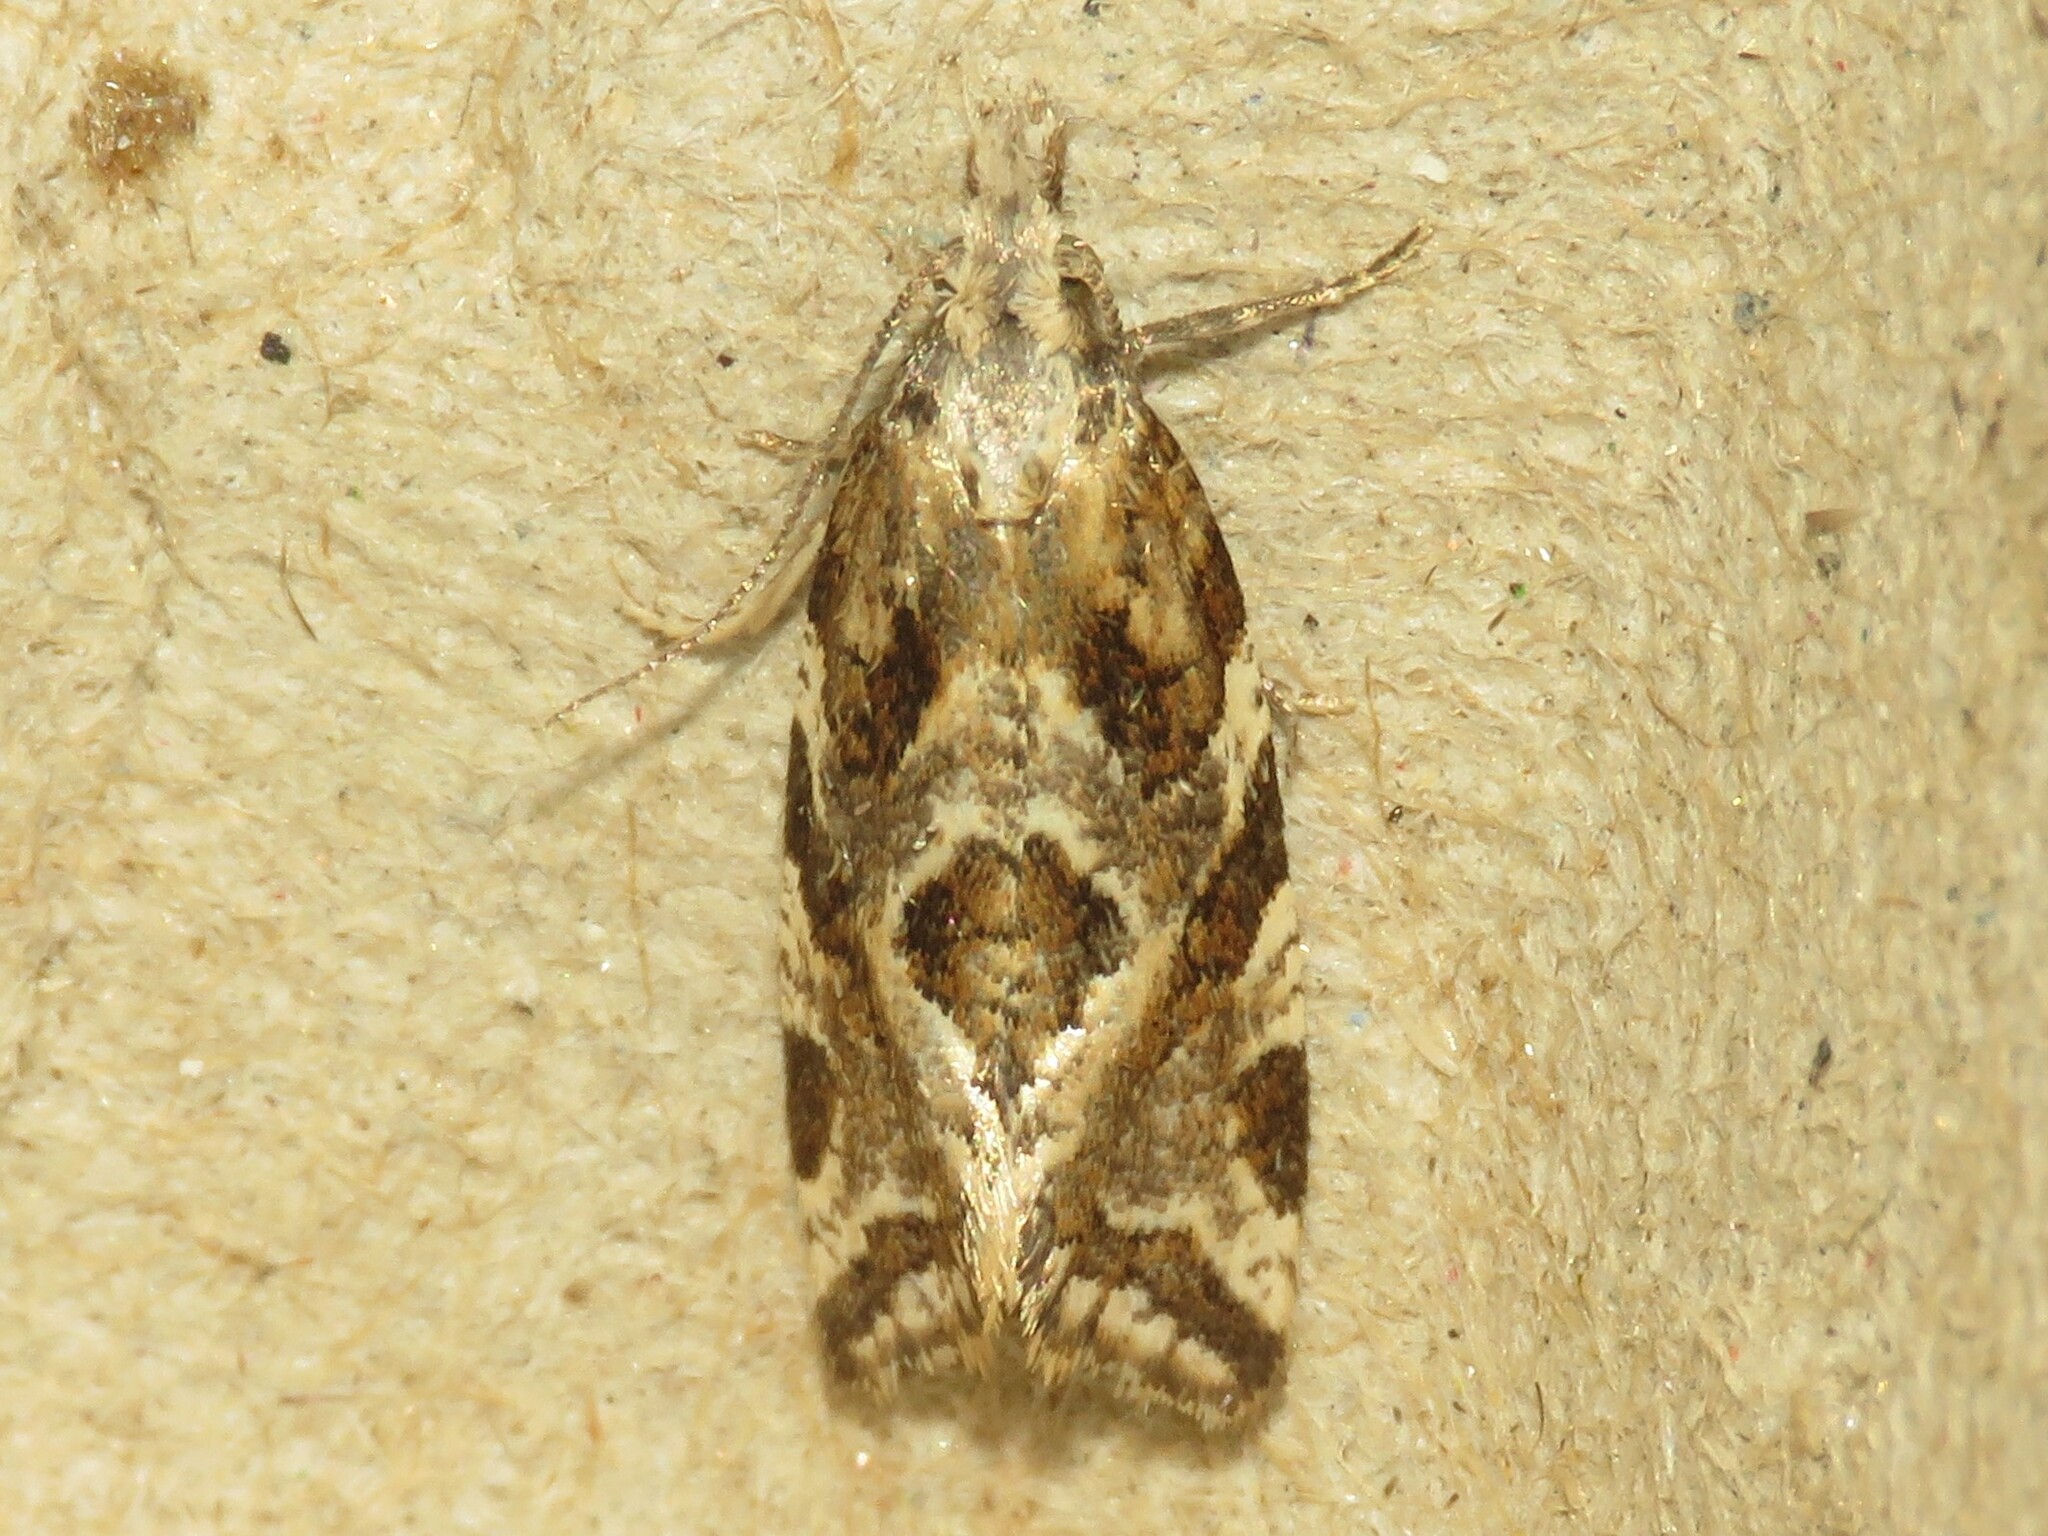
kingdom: Animalia
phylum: Arthropoda
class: Insecta
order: Lepidoptera
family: Tortricidae
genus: Aethes
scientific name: Aethes sexdentata
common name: Six-toothed aethes
